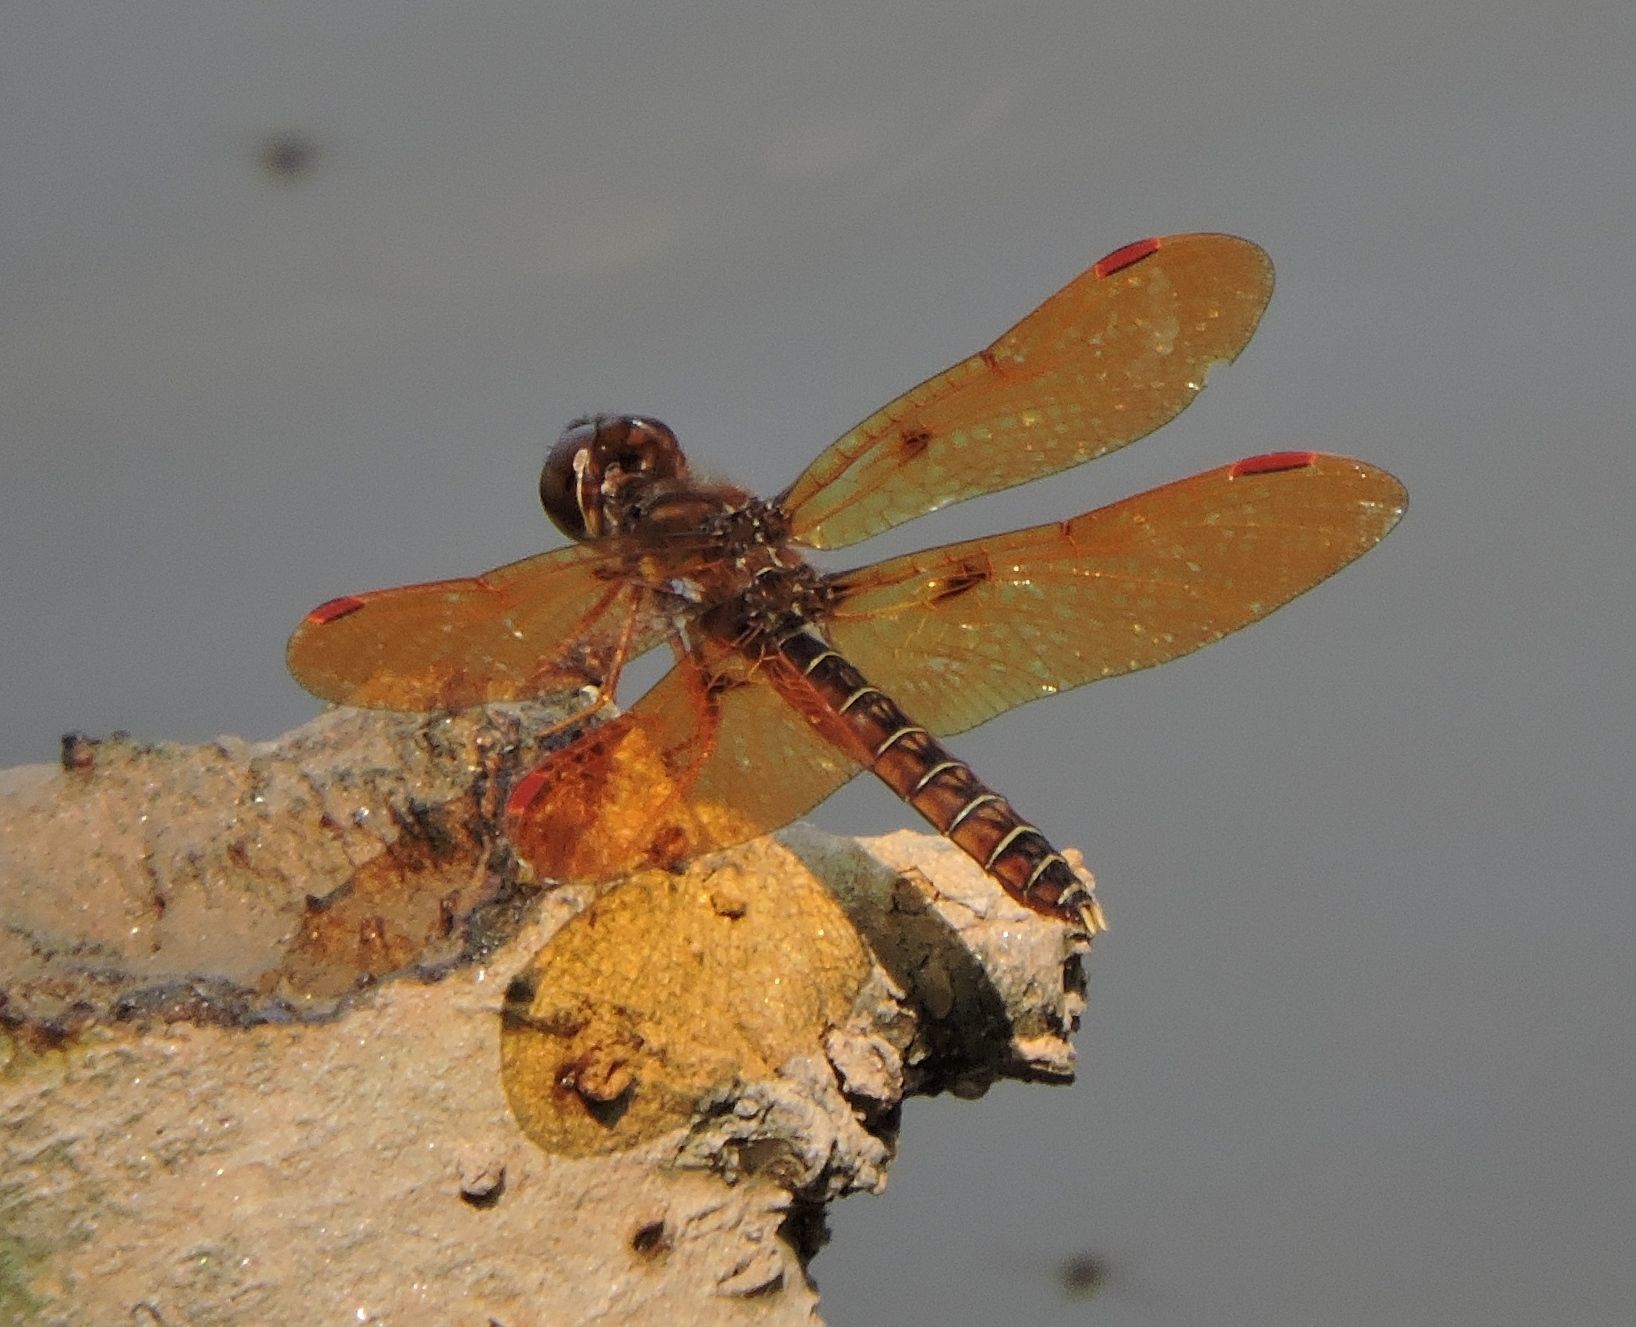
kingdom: Animalia
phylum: Arthropoda
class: Insecta
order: Odonata
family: Libellulidae
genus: Perithemis
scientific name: Perithemis tenera
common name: Eastern amberwing
